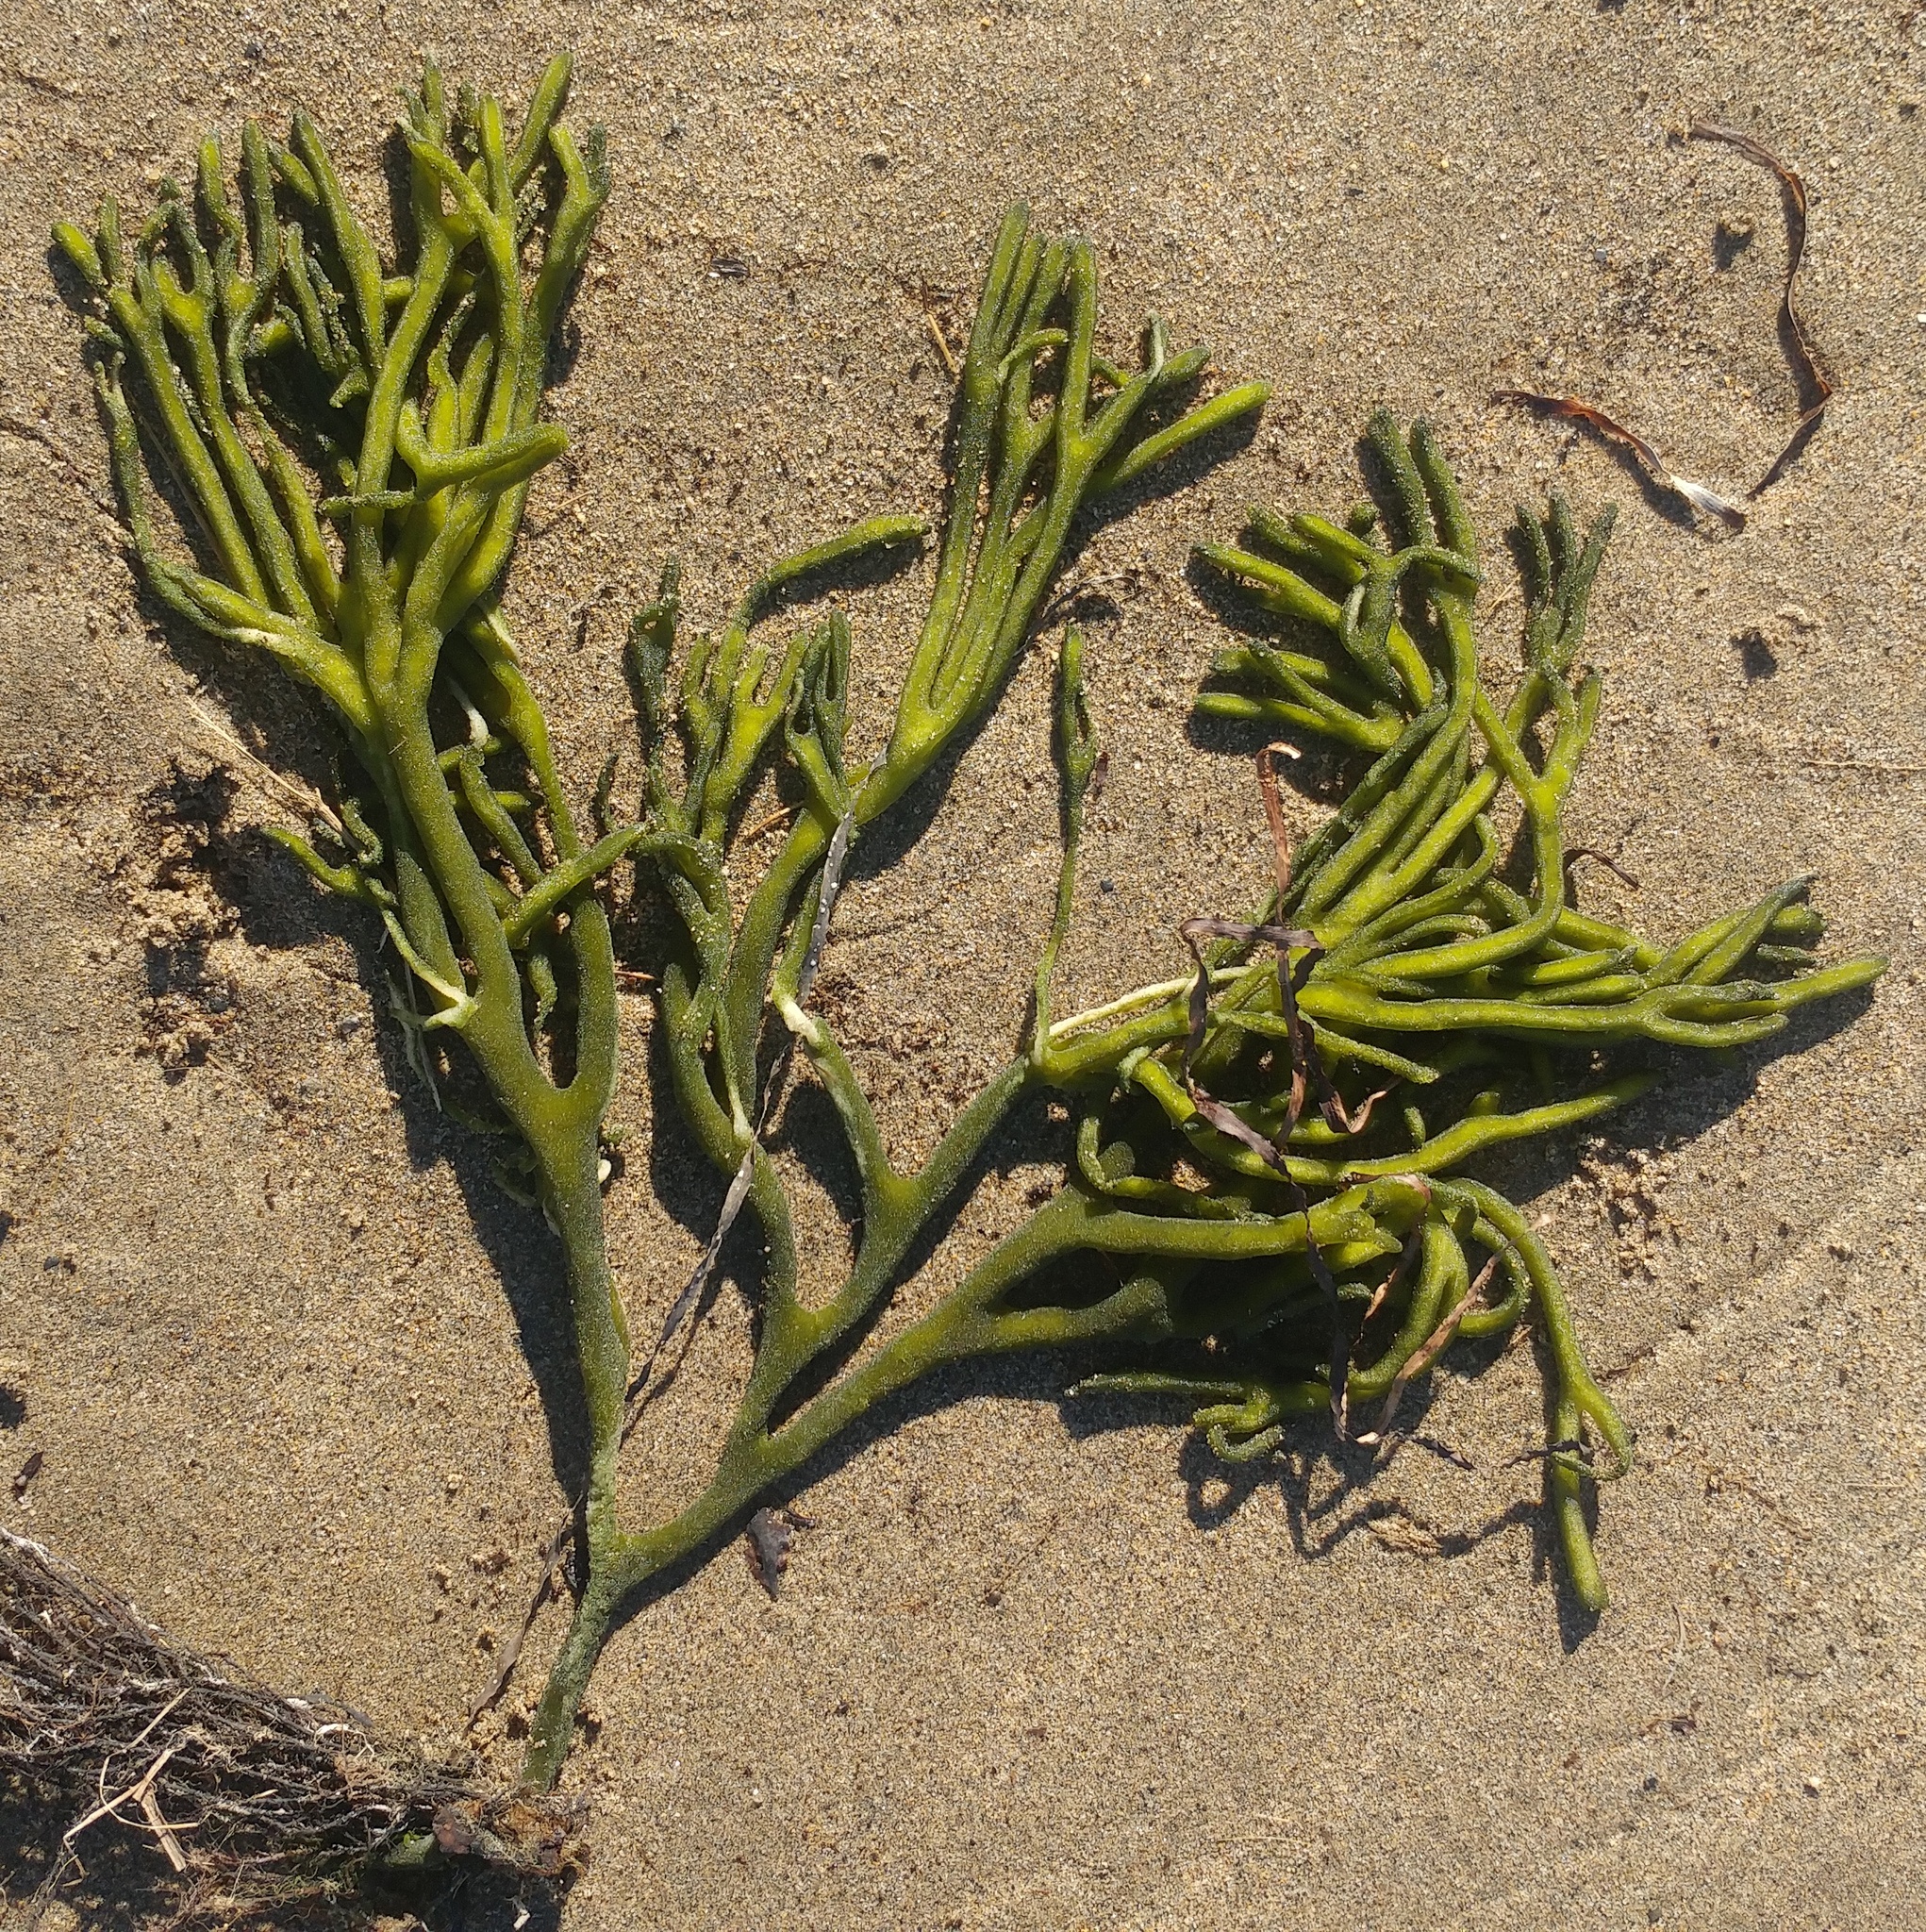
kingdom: Plantae
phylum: Chlorophyta
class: Ulvophyceae
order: Bryopsidales
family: Codiaceae
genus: Codium
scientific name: Codium fragile
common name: Dead man's fingers
